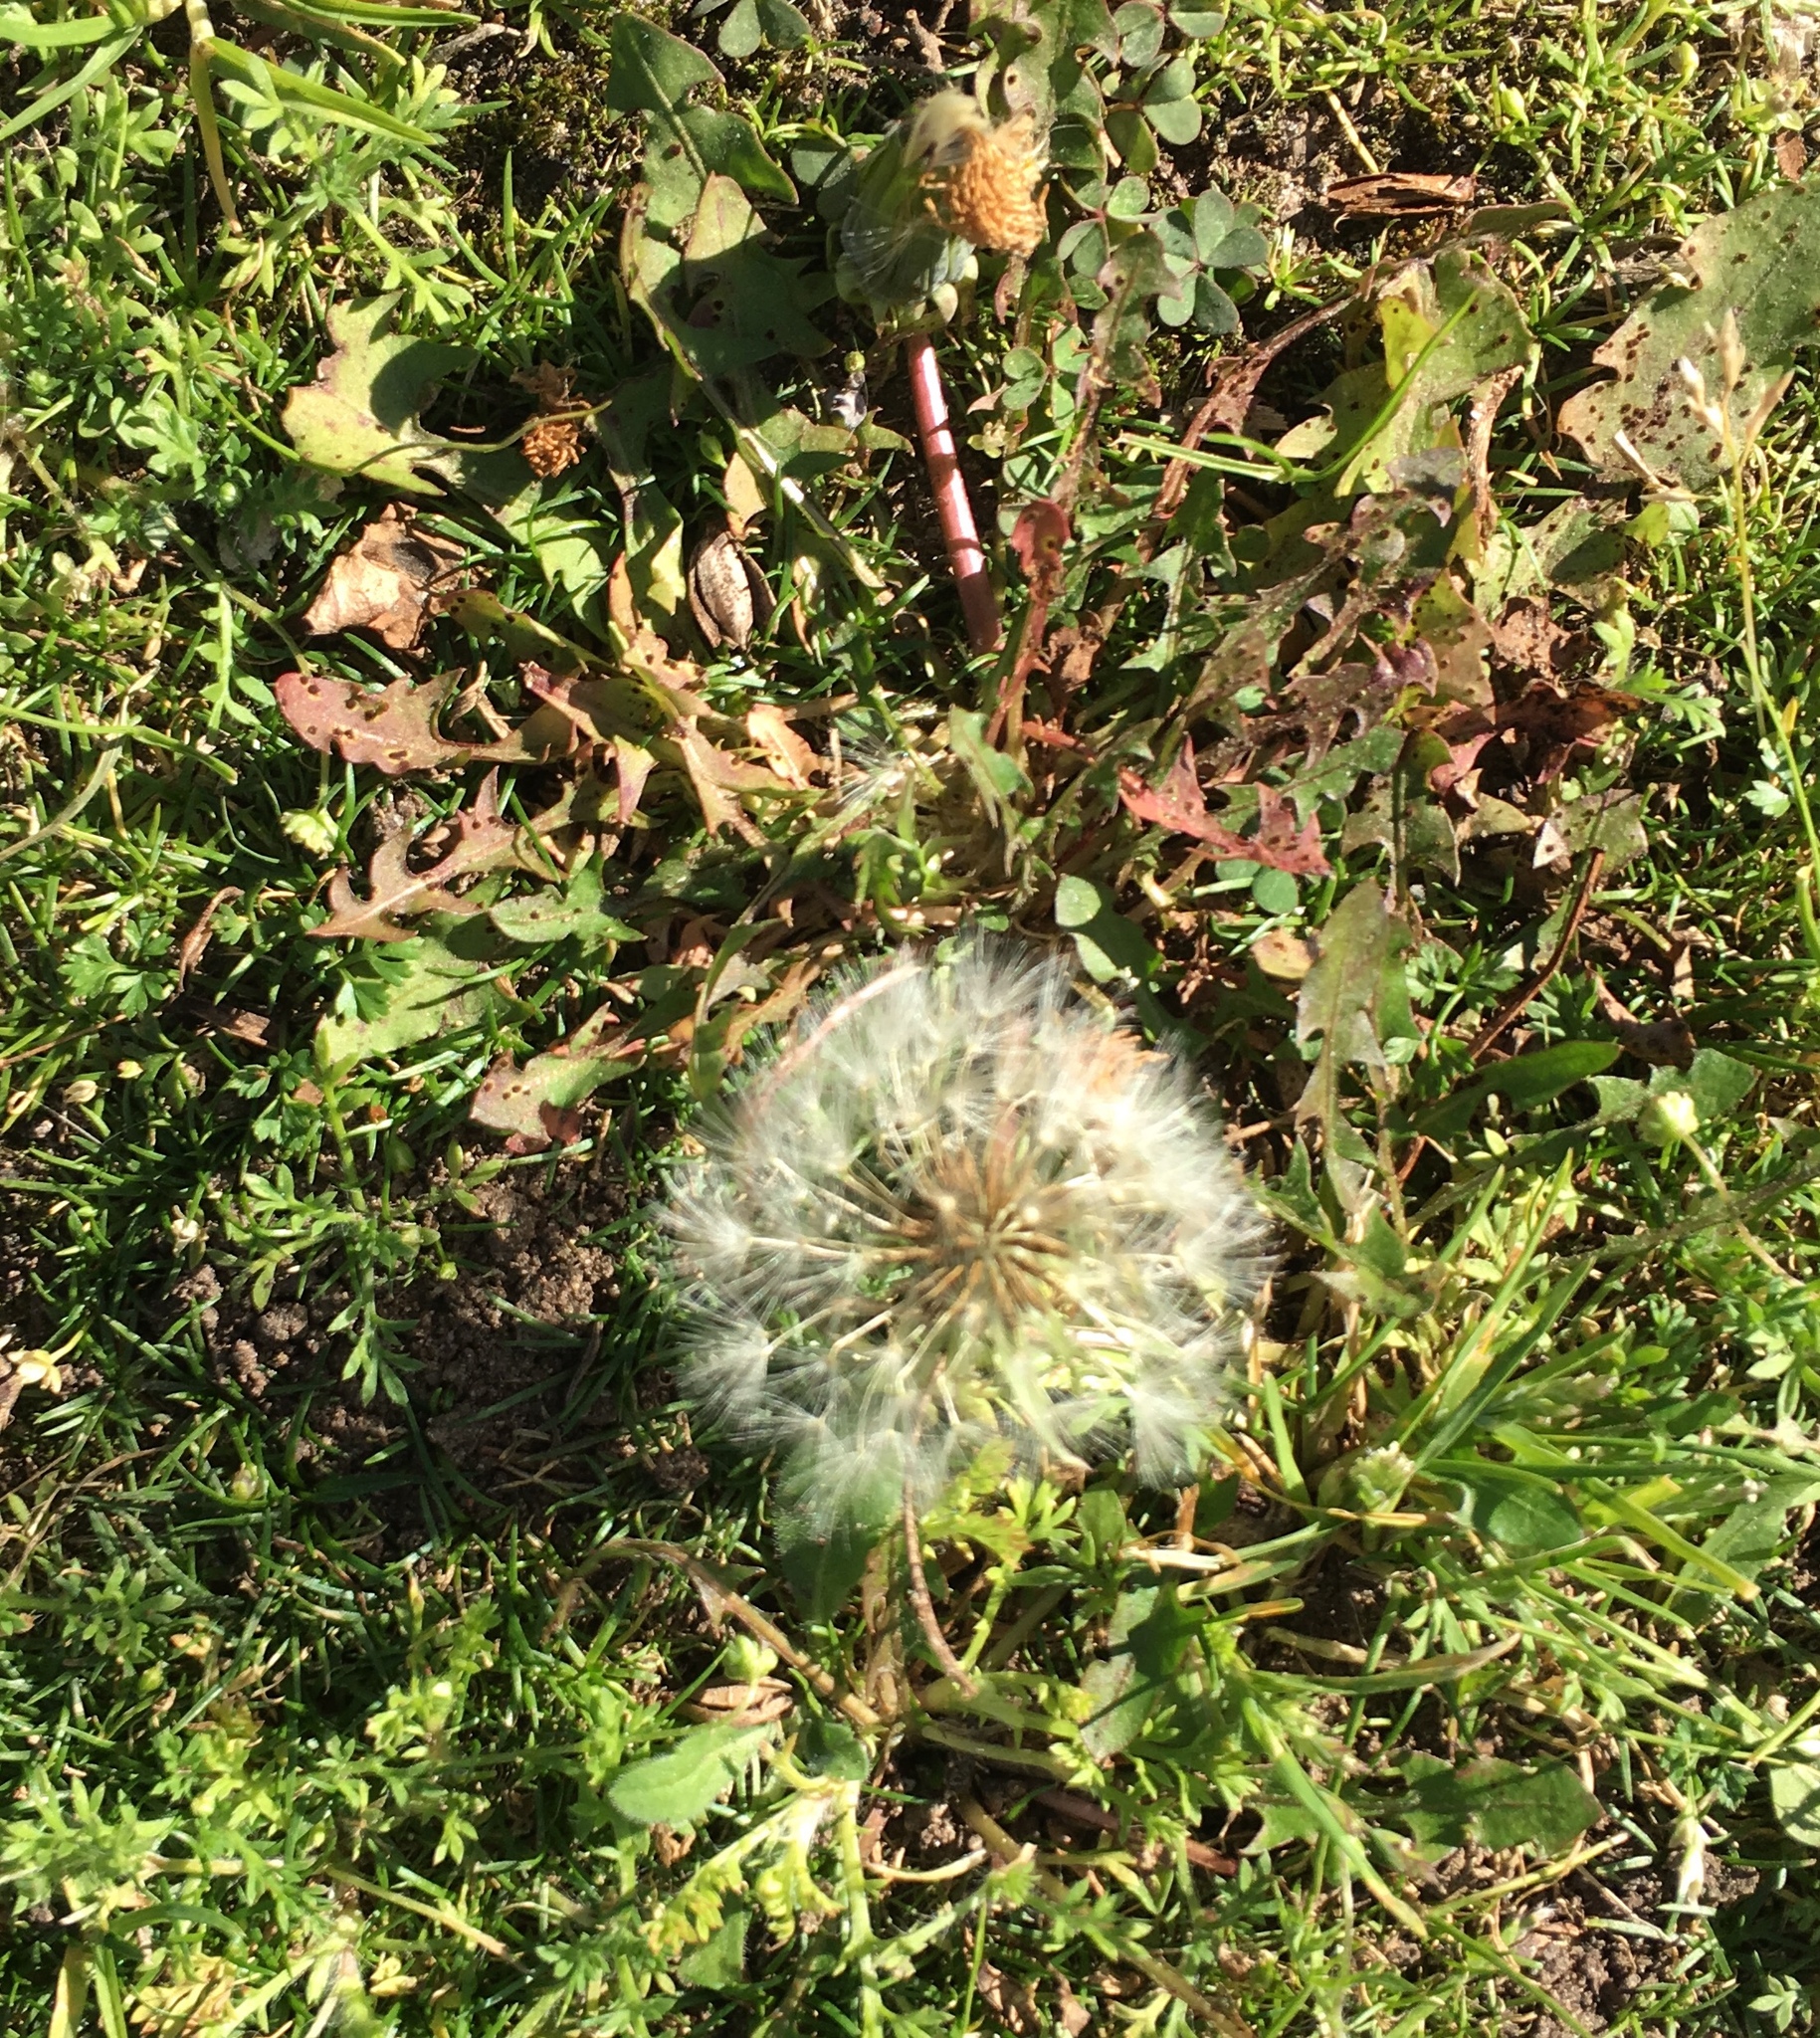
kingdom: Plantae
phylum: Tracheophyta
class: Magnoliopsida
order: Asterales
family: Asteraceae
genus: Taraxacum
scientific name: Taraxacum officinale
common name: Common dandelion
